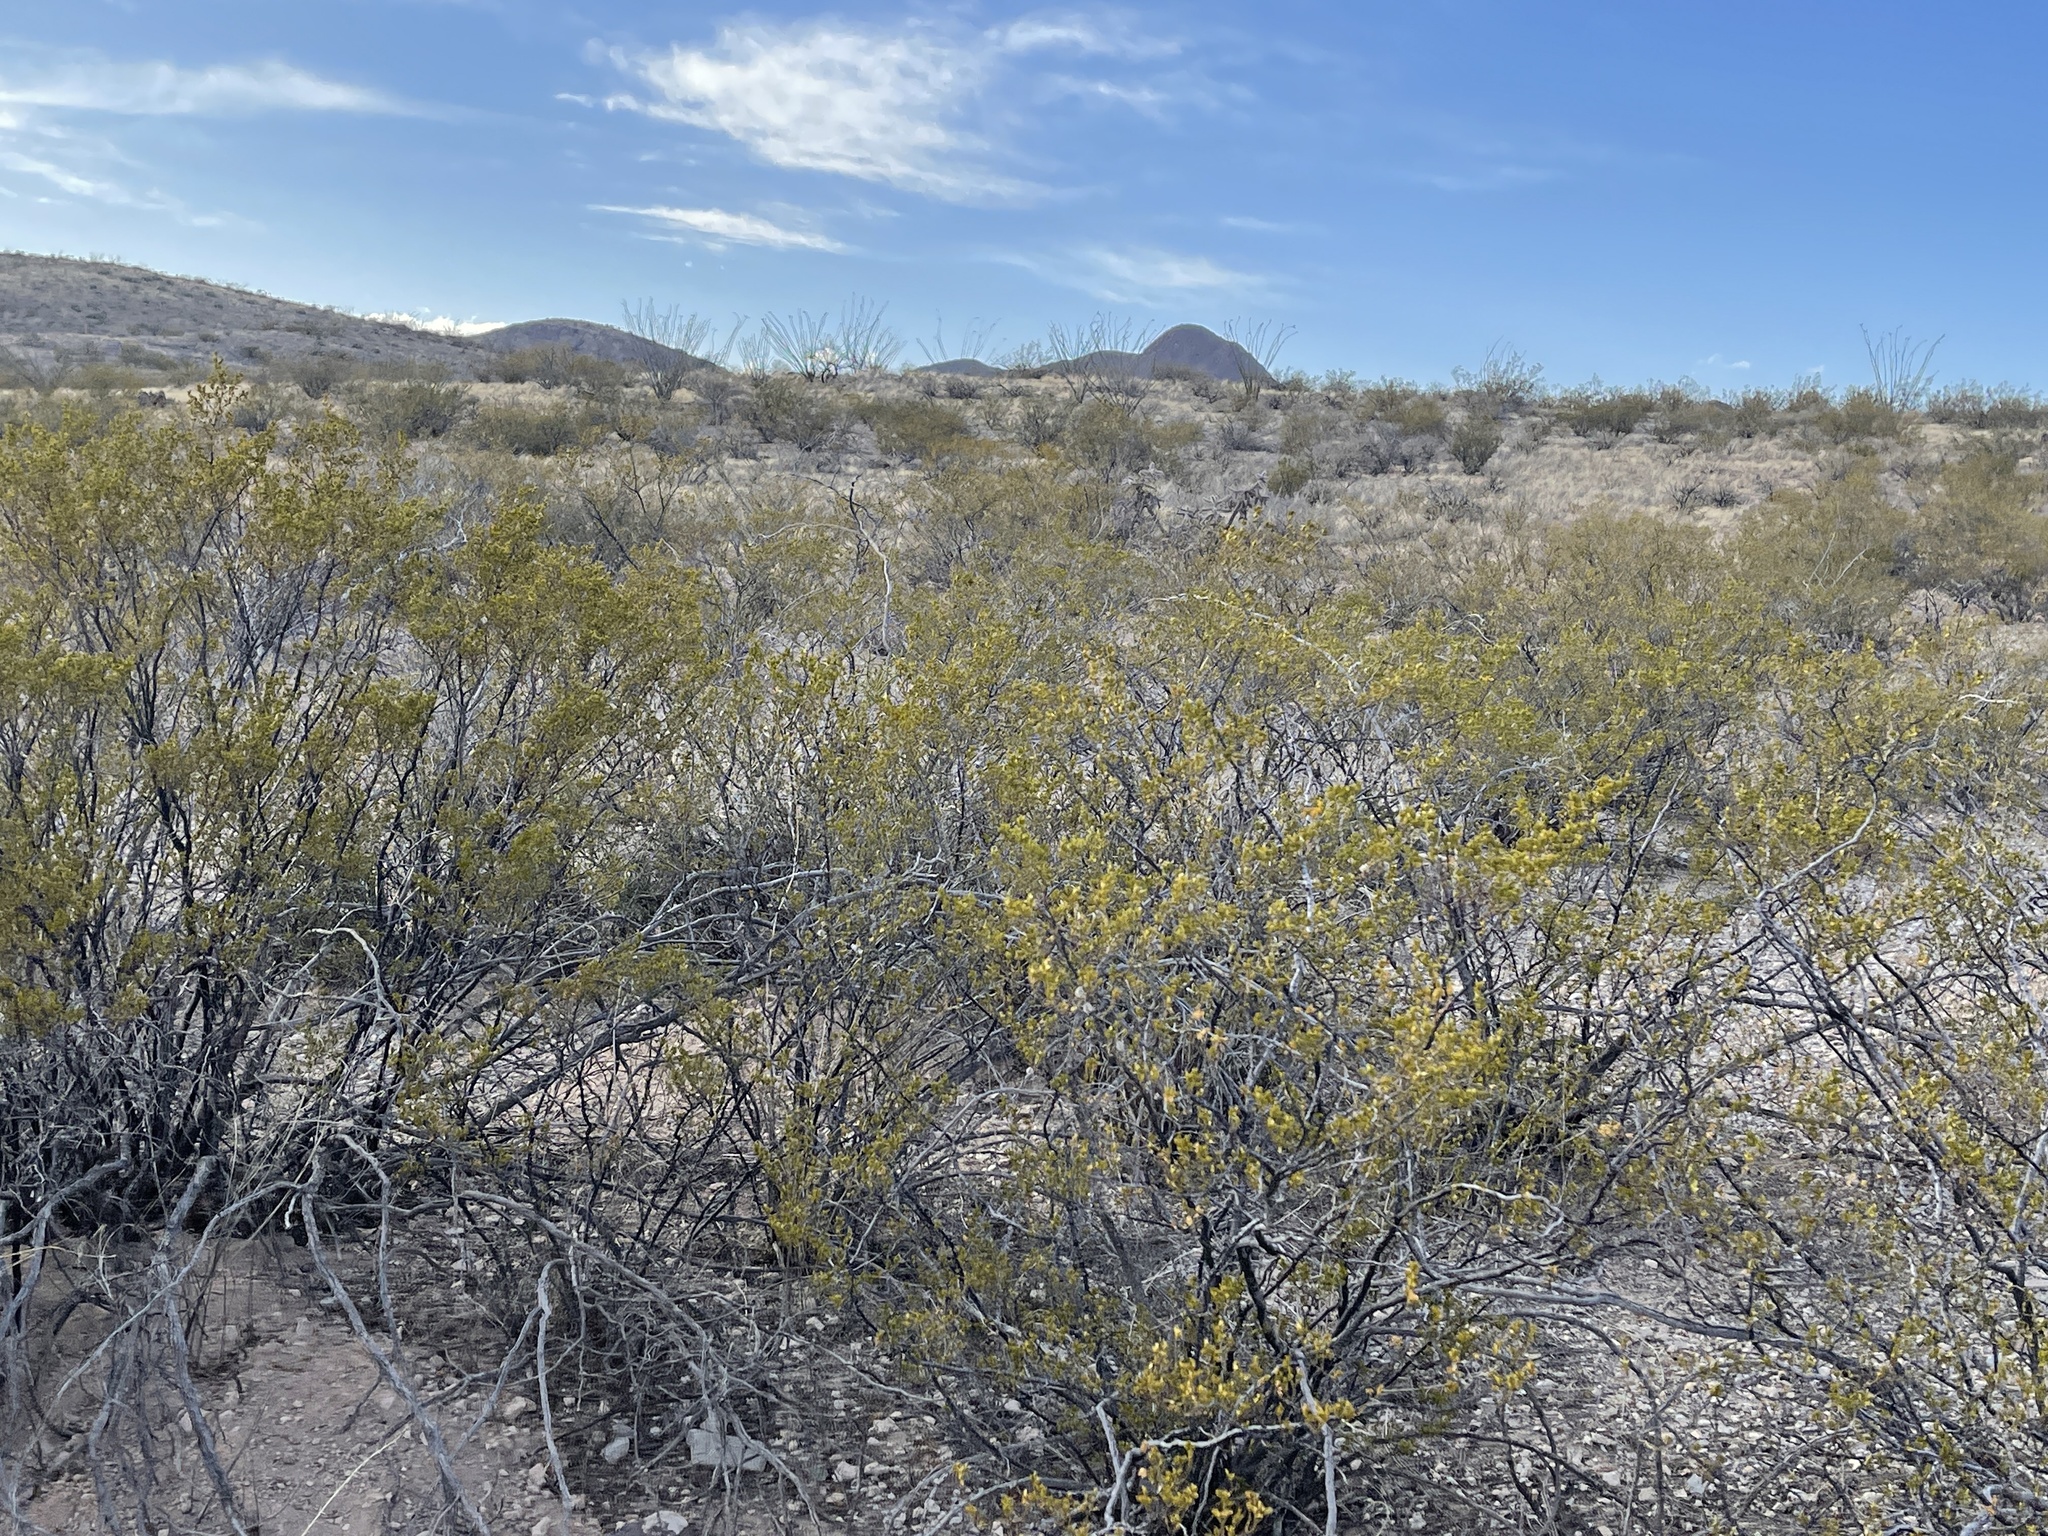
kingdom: Plantae
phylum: Tracheophyta
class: Magnoliopsida
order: Zygophyllales
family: Zygophyllaceae
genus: Larrea
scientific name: Larrea tridentata
